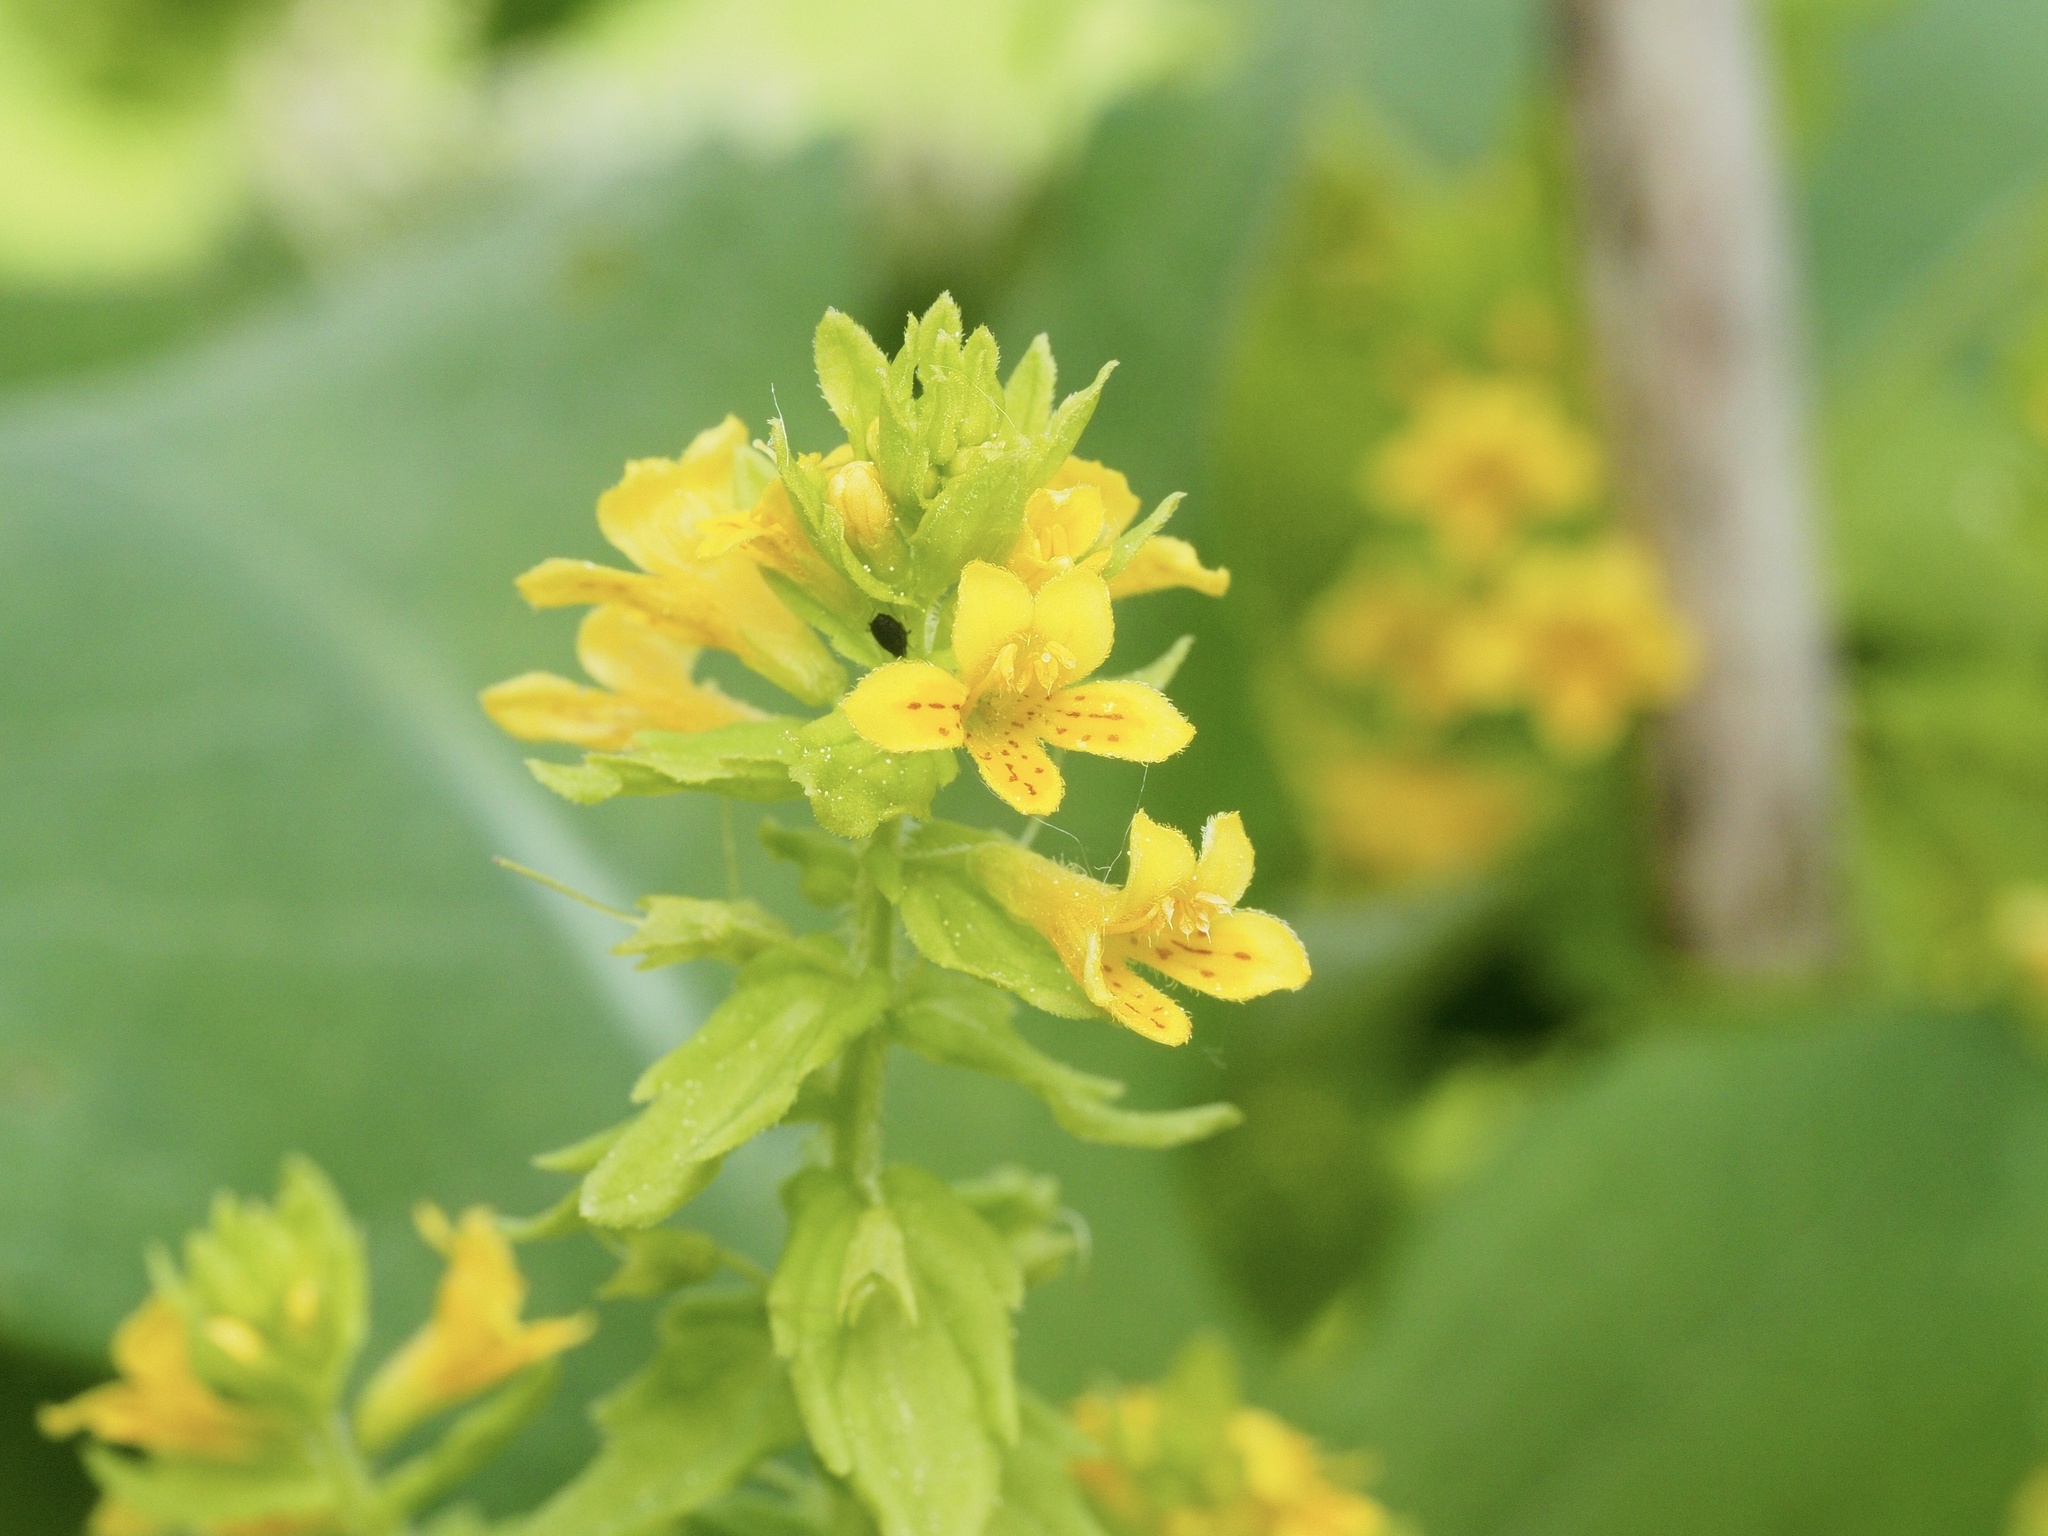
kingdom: Plantae
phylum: Tracheophyta
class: Magnoliopsida
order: Lamiales
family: Orobanchaceae
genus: Tozzia
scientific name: Tozzia alpina
